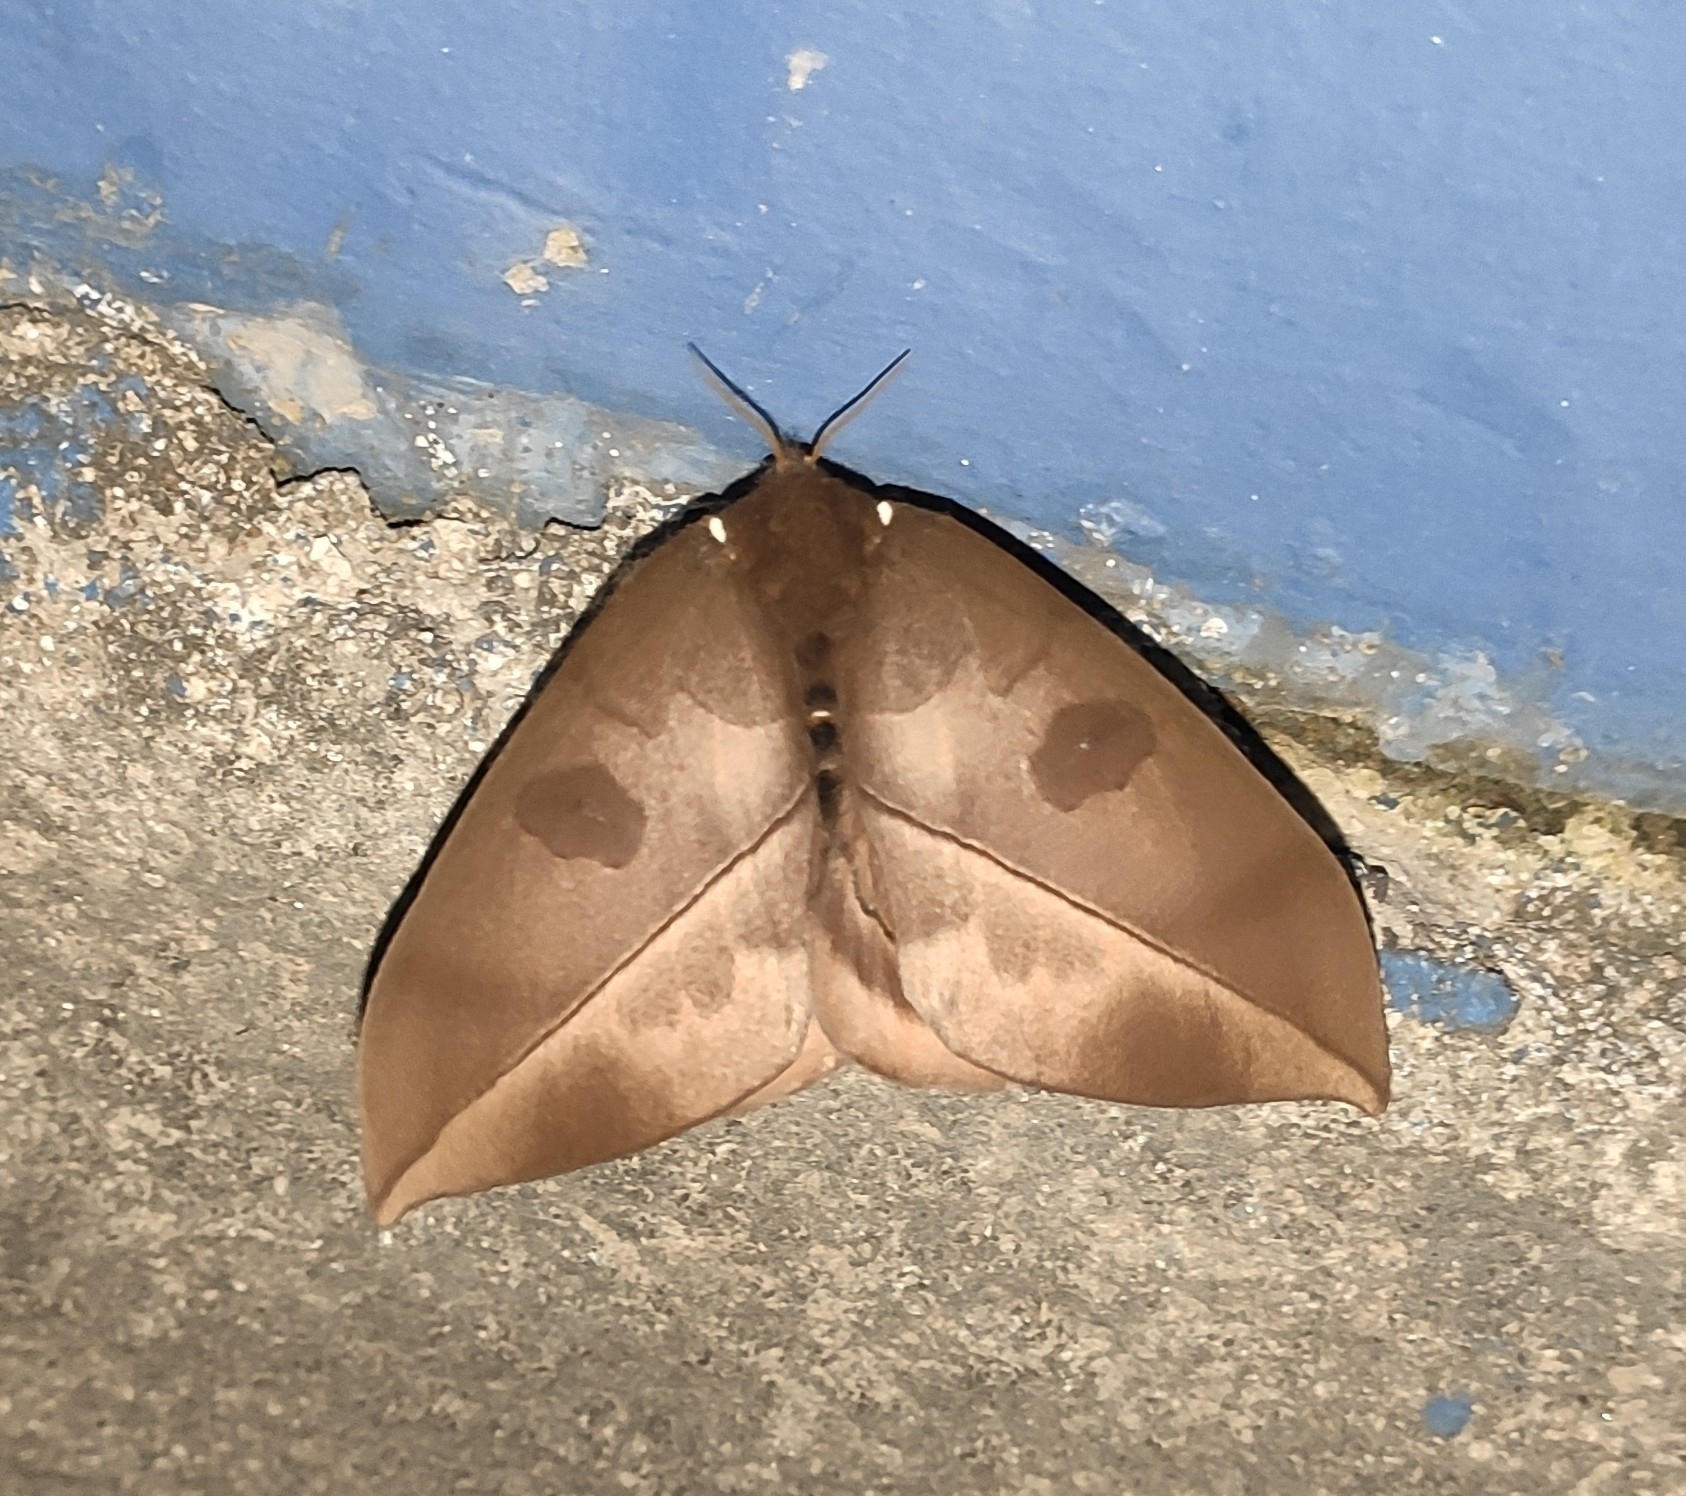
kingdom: Animalia
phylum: Arthropoda
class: Insecta
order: Lepidoptera
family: Saturniidae
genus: Automeris
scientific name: Automeris melanops
